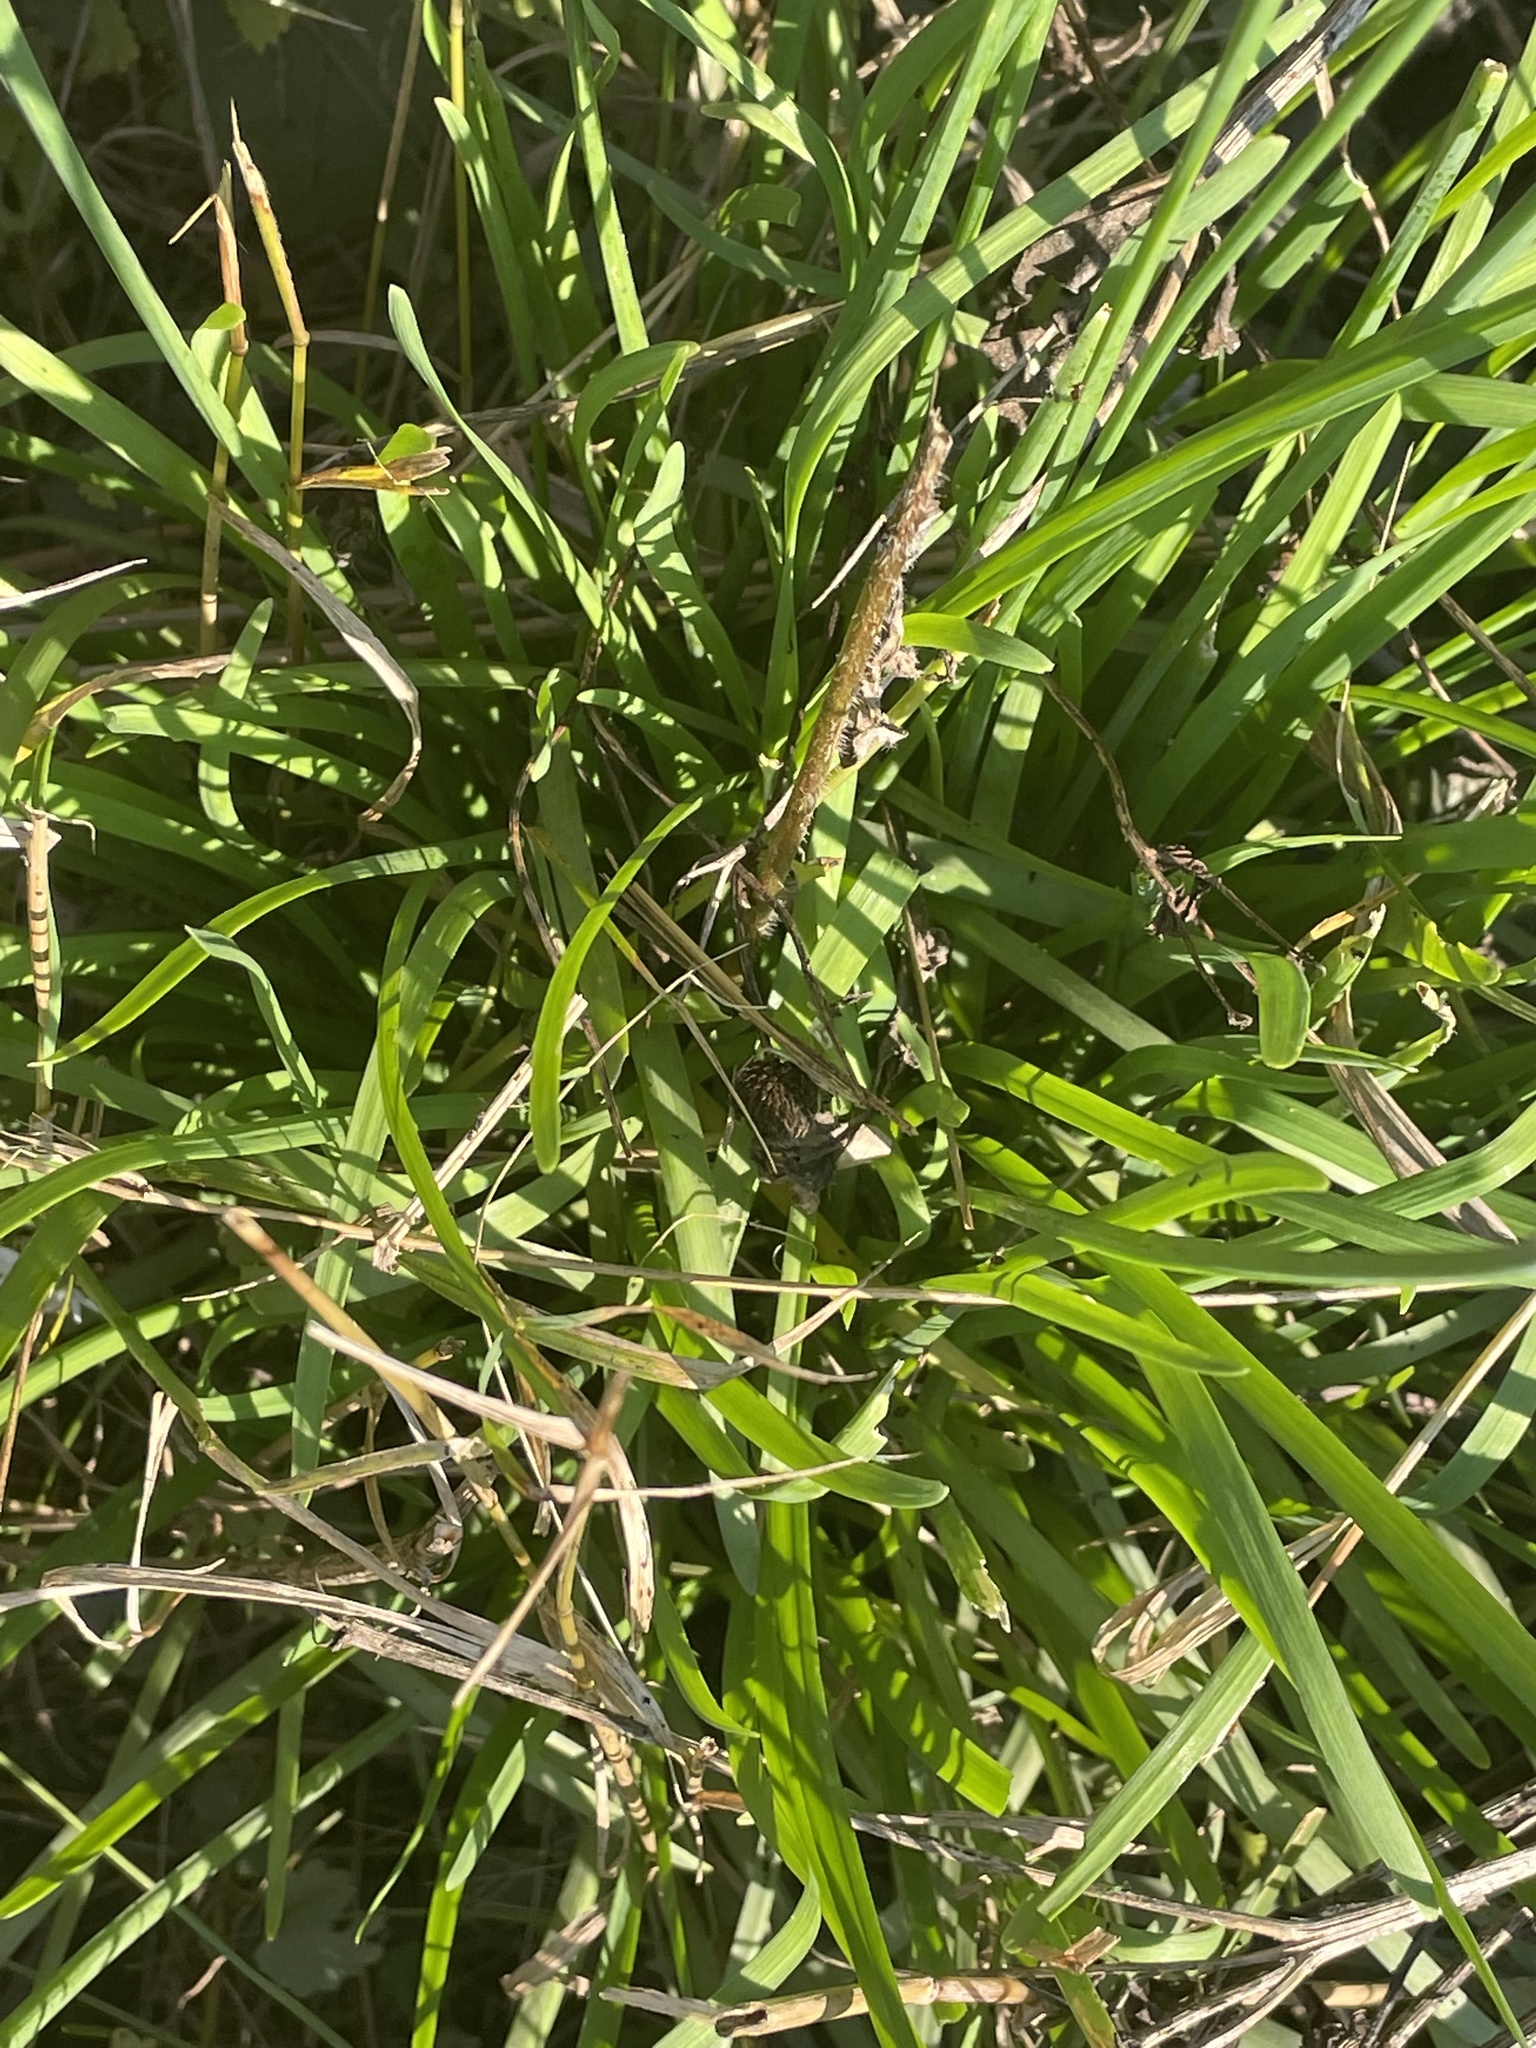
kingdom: Plantae
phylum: Tracheophyta
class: Liliopsida
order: Asparagales
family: Amaryllidaceae
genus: Allium
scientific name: Allium tuberosum
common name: Chinese chives
